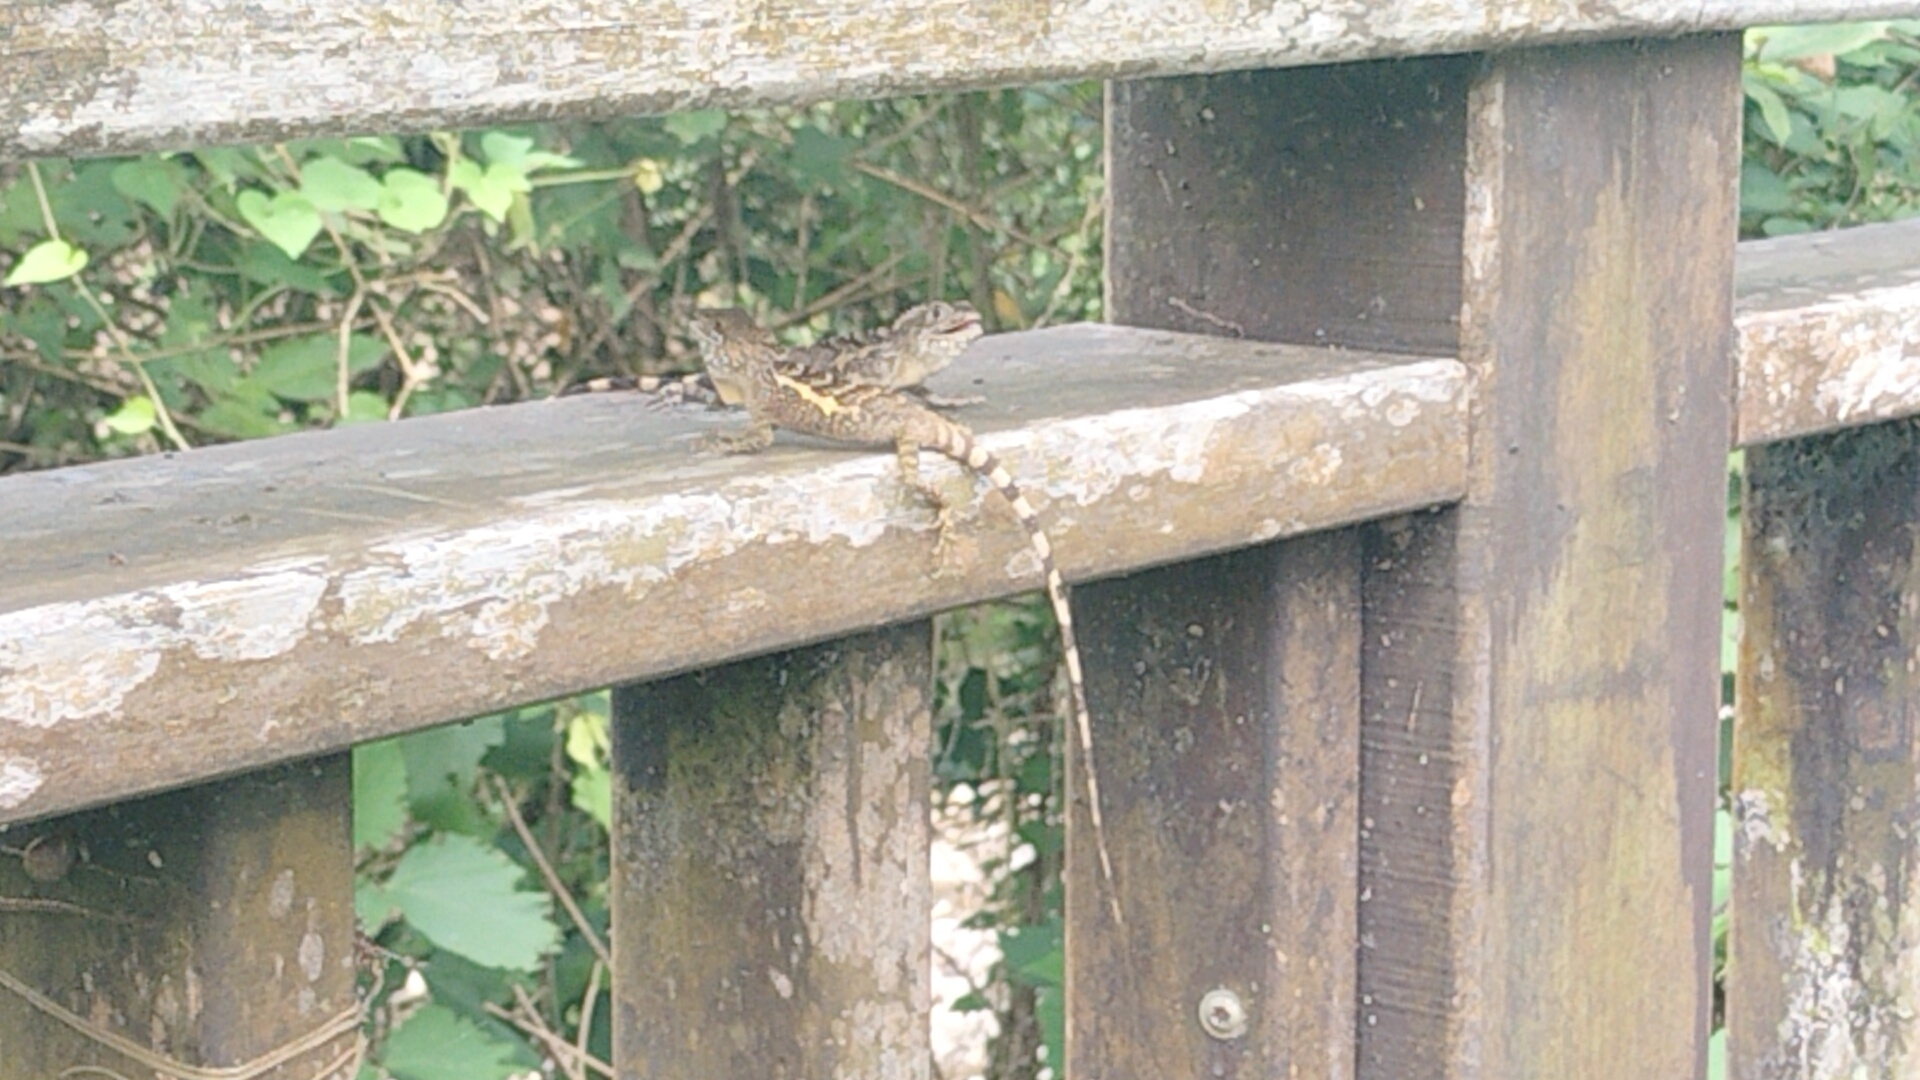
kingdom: Animalia
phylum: Chordata
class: Squamata
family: Agamidae
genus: Diploderma
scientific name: Diploderma swinhonis
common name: Taiwan japalure
